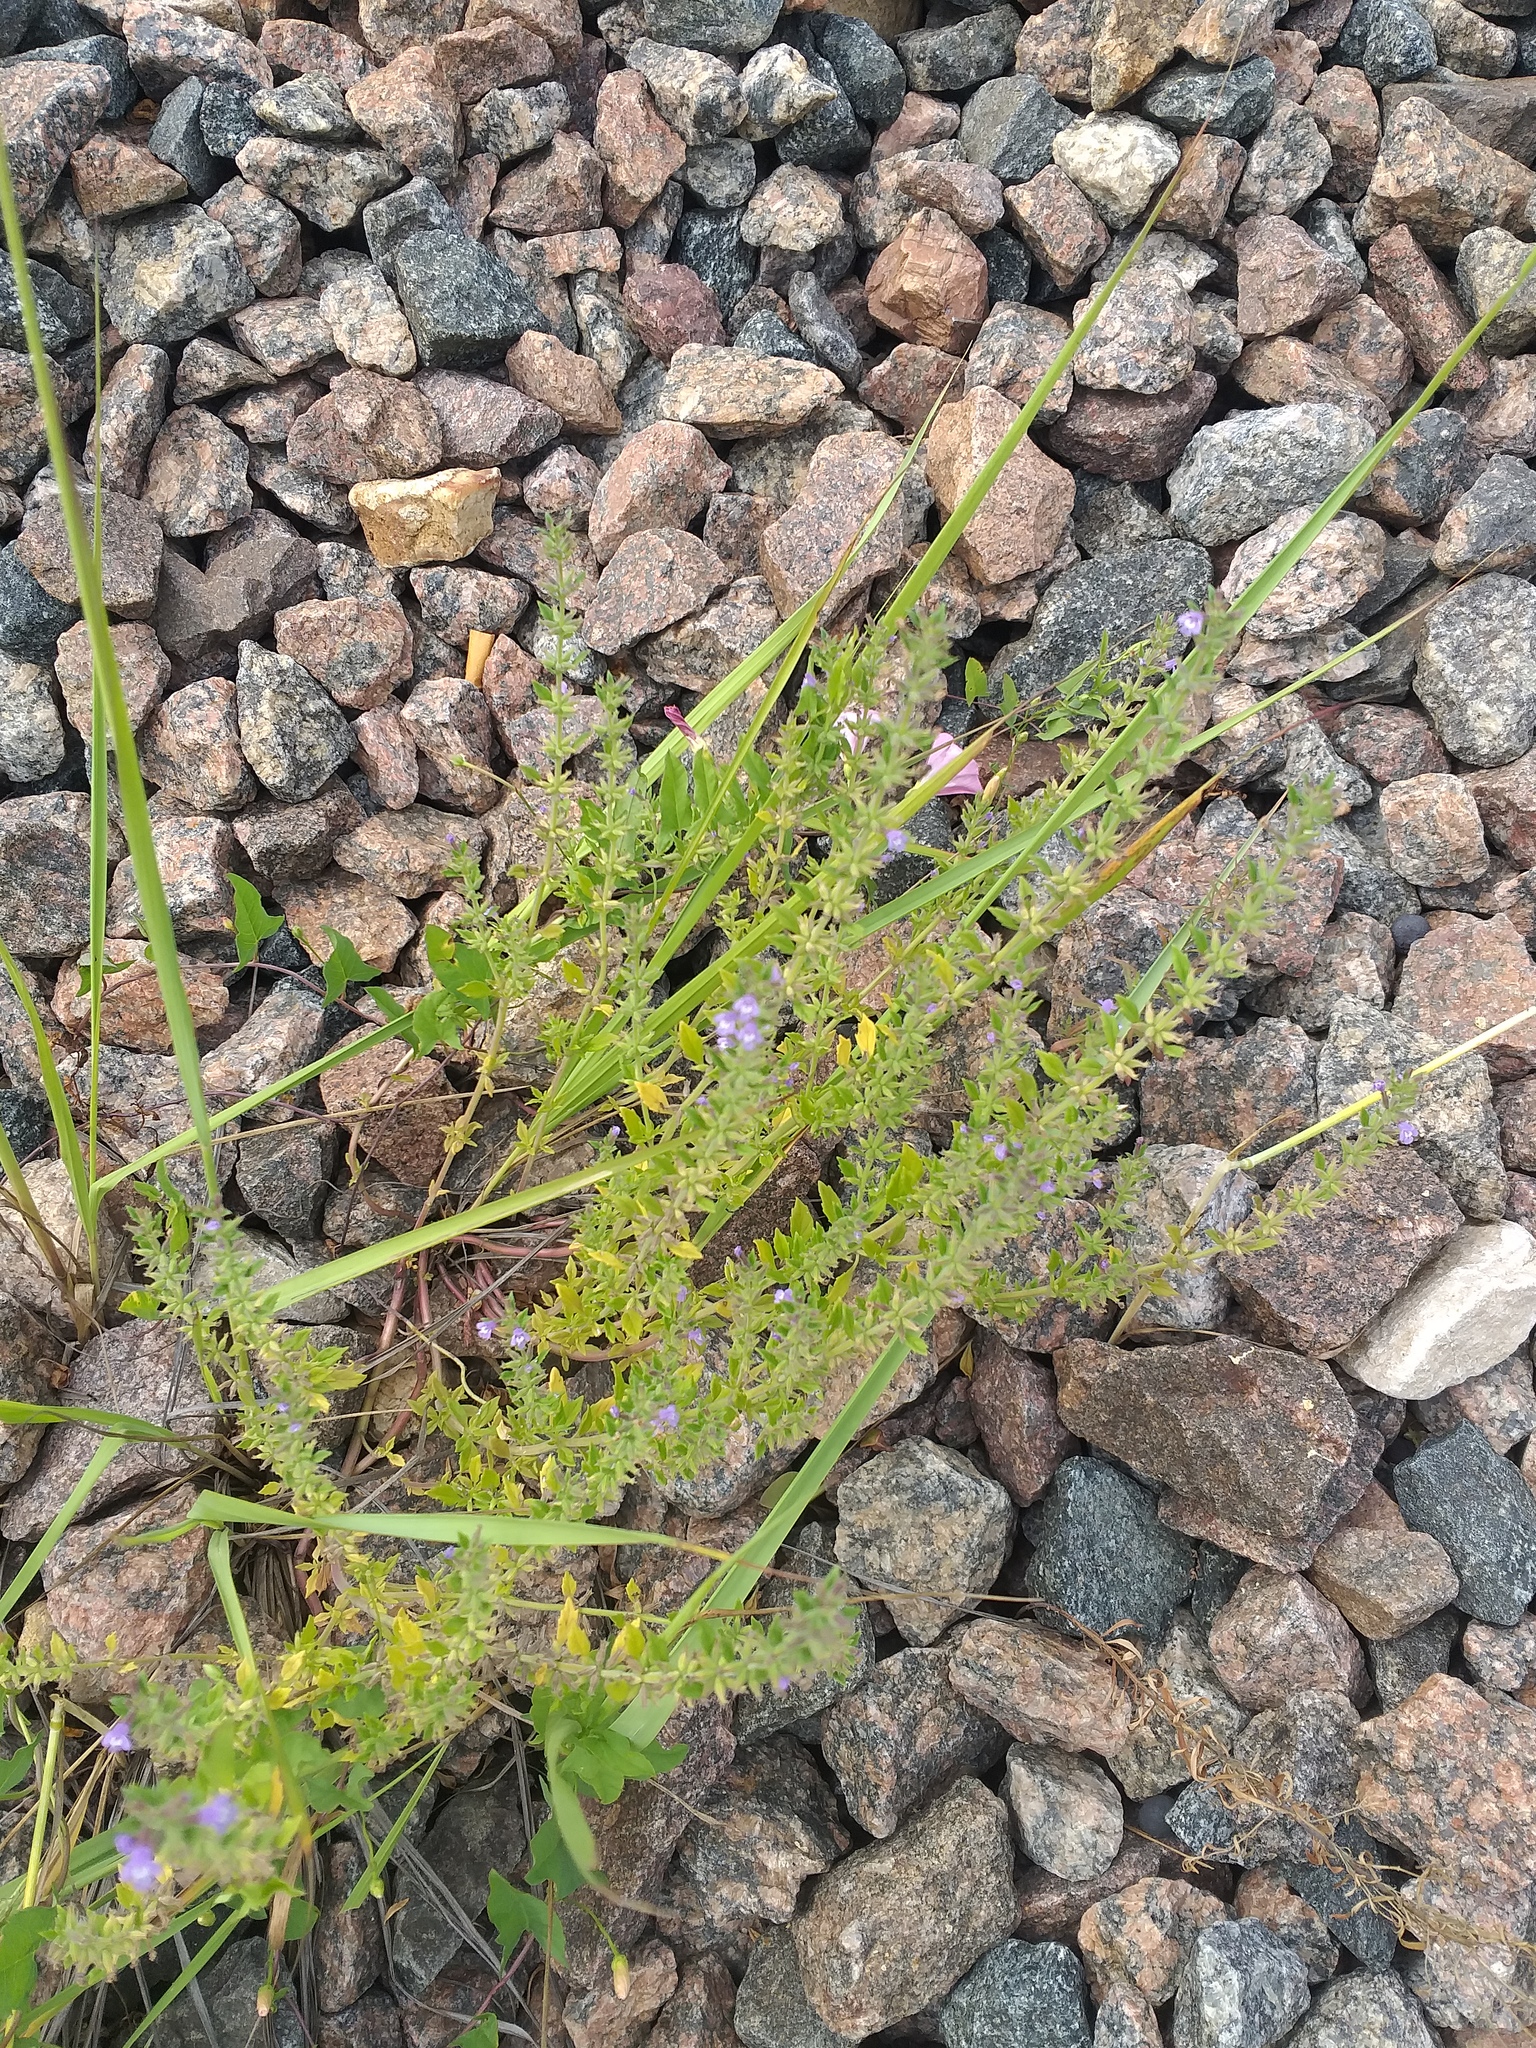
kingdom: Plantae
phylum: Tracheophyta
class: Magnoliopsida
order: Lamiales
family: Lamiaceae
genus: Clinopodium
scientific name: Clinopodium acinos
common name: Basil thyme
